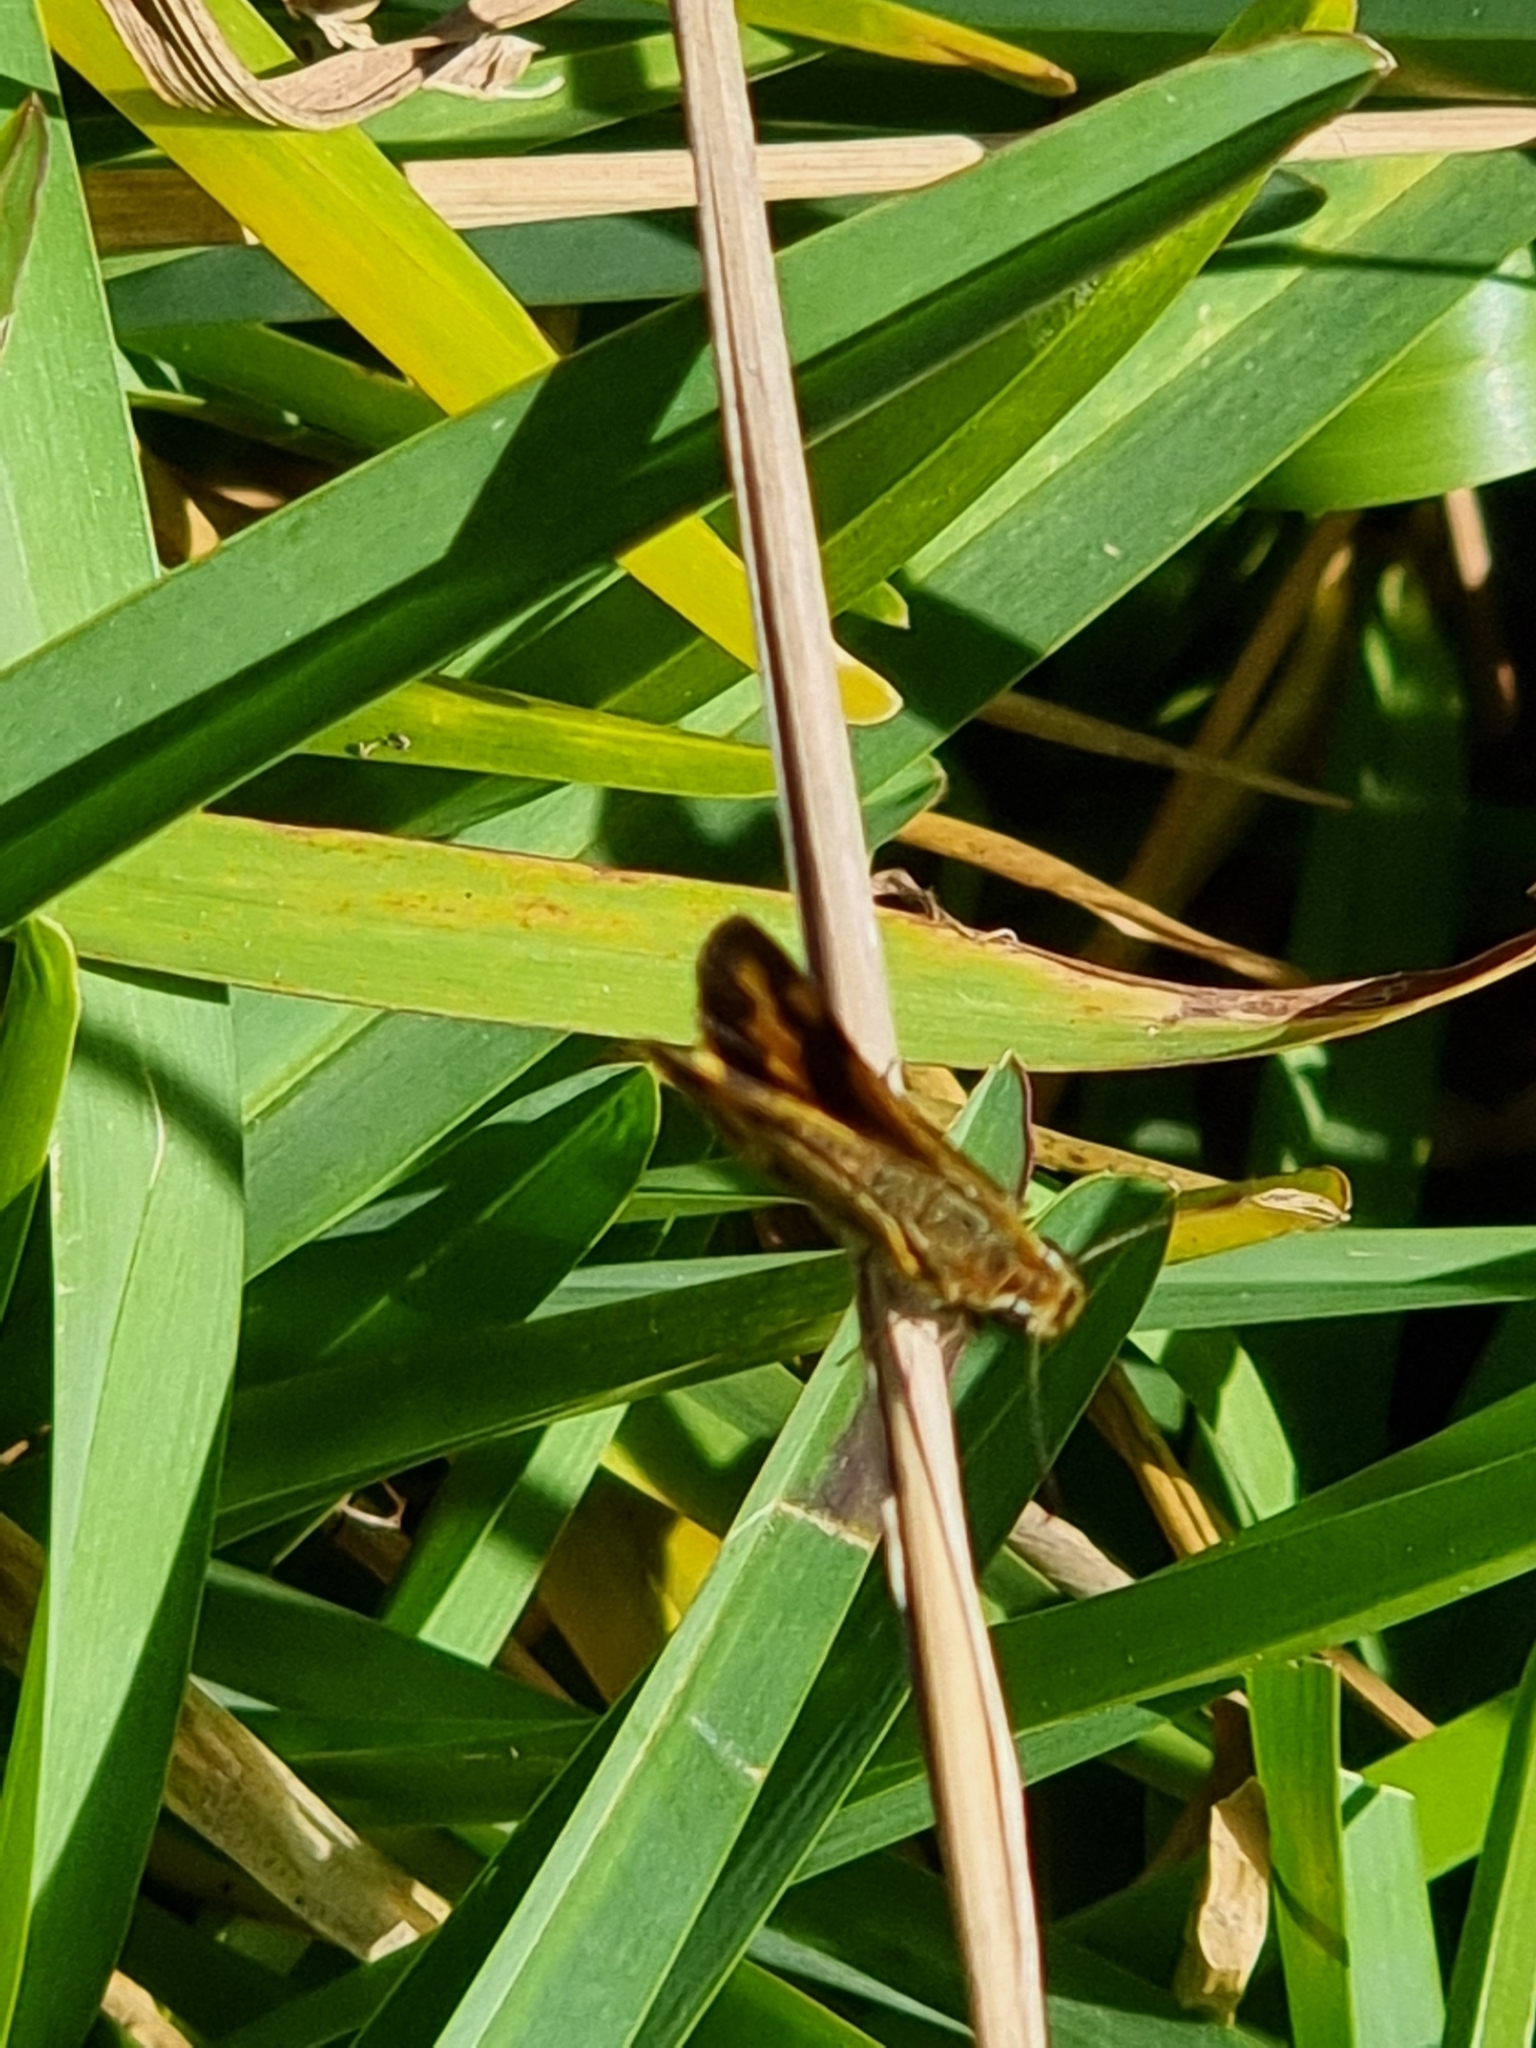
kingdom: Animalia
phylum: Arthropoda
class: Insecta
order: Lepidoptera
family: Hesperiidae
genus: Ocybadistes
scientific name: Ocybadistes flavovittata
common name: Narrow-brand grass-dart
